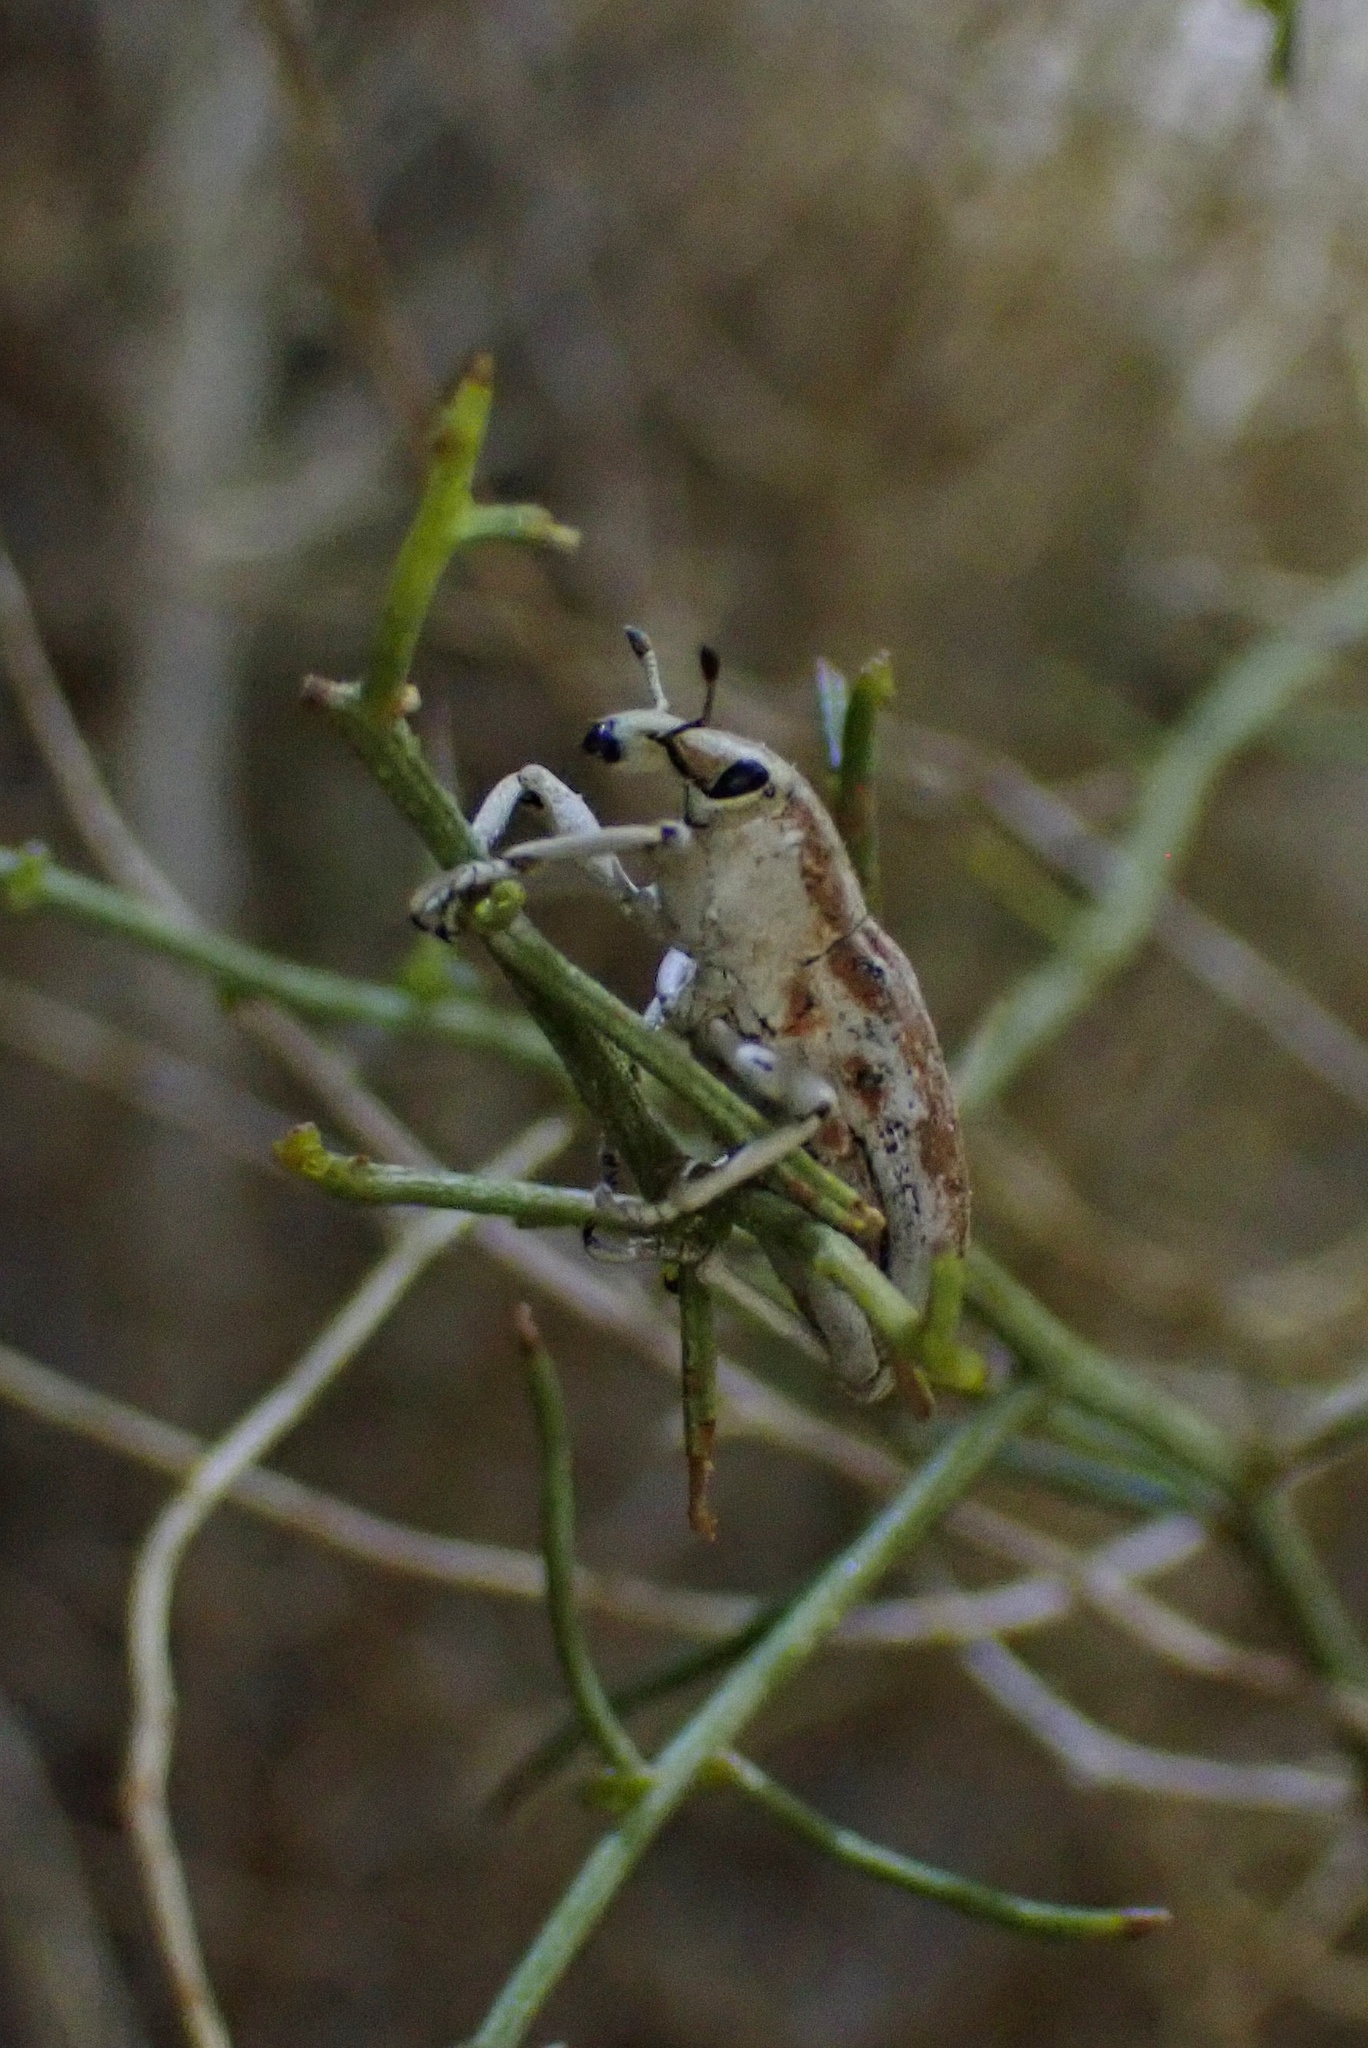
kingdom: Animalia
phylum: Arthropoda
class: Insecta
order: Coleoptera
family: Curculionidae
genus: Apleurus
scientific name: Apleurus albovestitus
